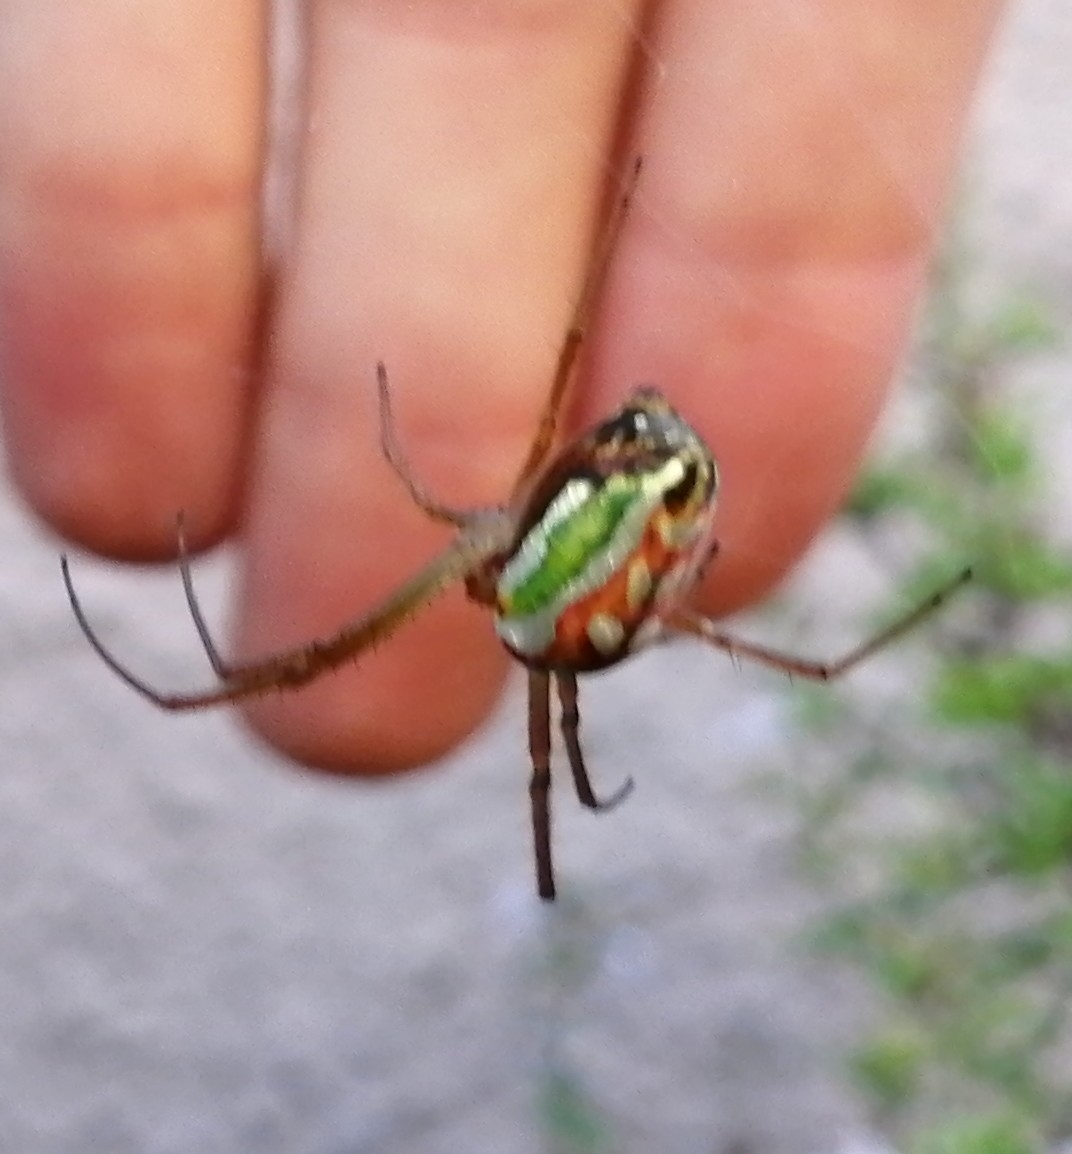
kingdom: Animalia
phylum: Arthropoda
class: Arachnida
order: Araneae
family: Tetragnathidae
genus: Leucauge
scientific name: Leucauge festiva
